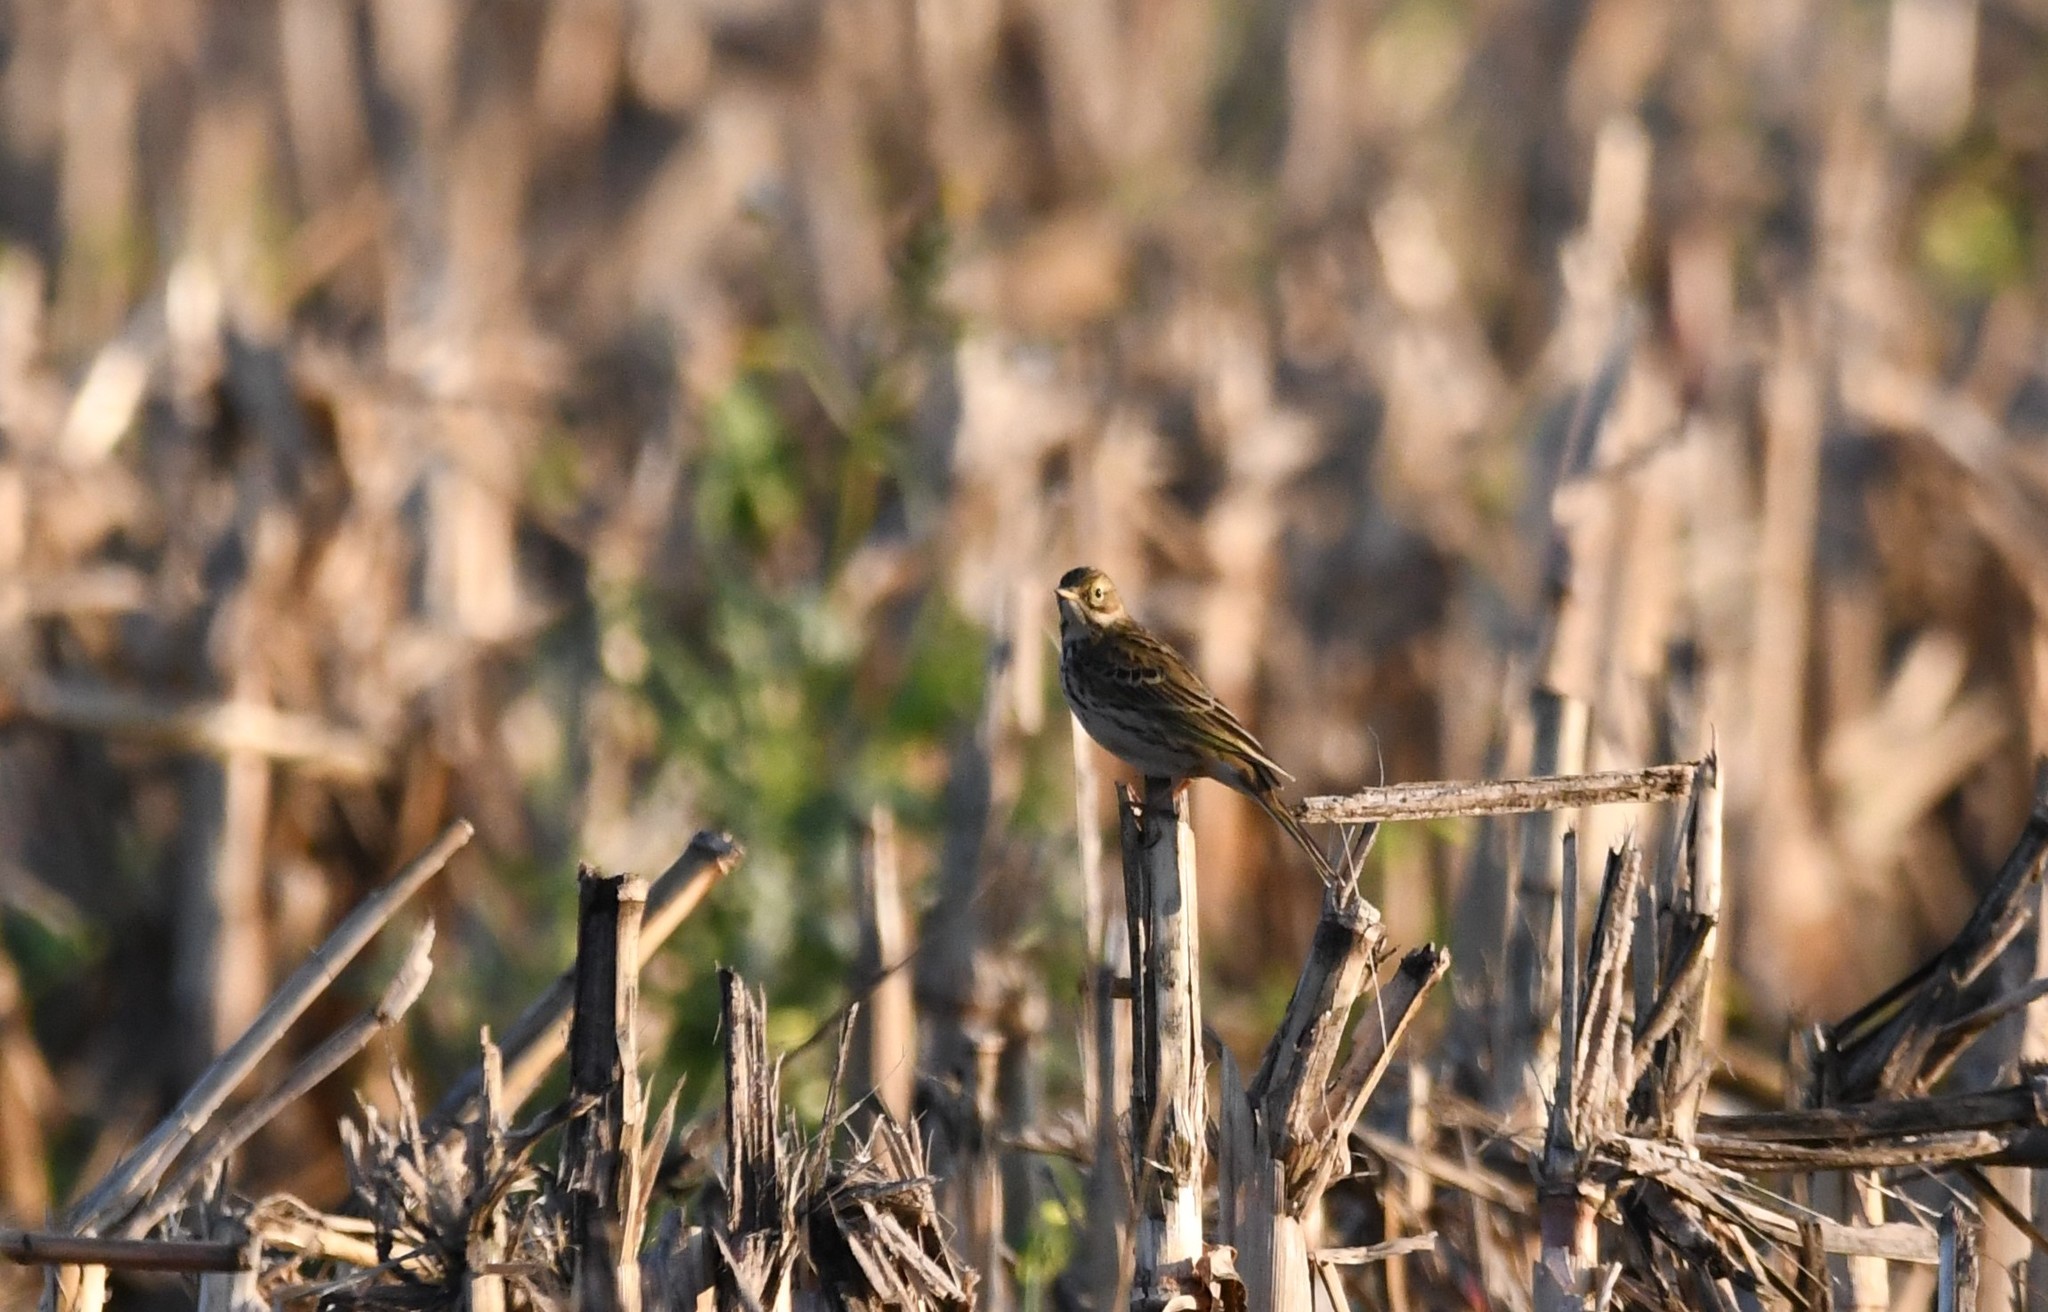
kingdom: Animalia
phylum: Chordata
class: Aves
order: Passeriformes
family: Motacillidae
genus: Anthus
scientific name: Anthus pratensis
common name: Meadow pipit
